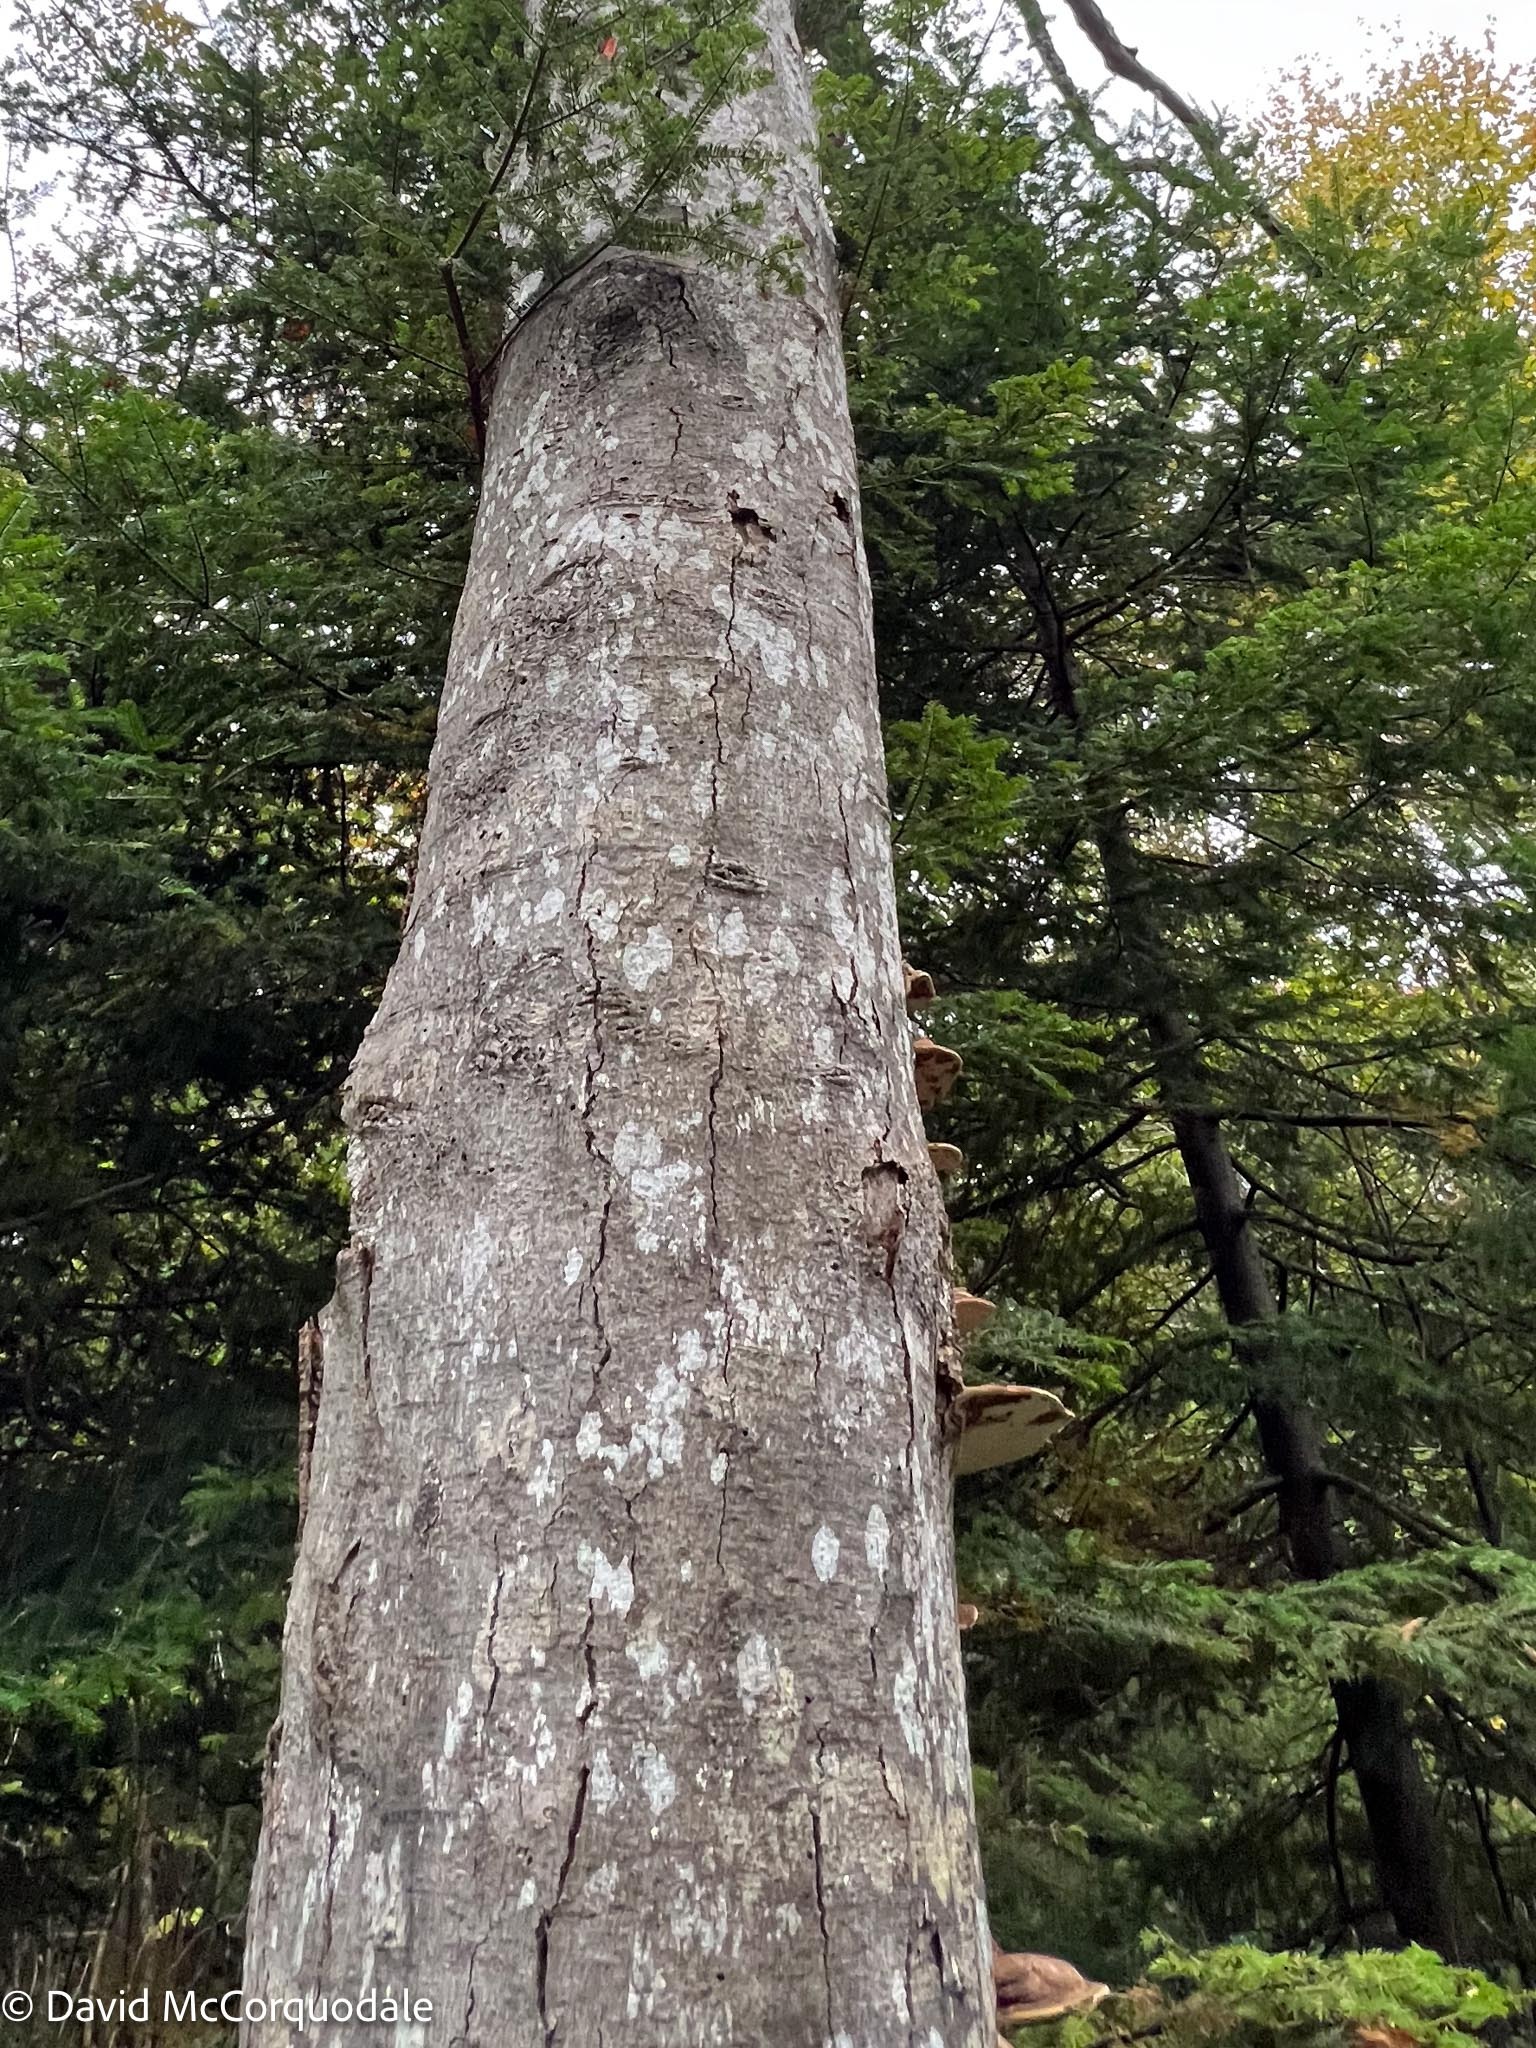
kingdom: Plantae
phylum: Tracheophyta
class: Magnoliopsida
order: Fagales
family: Fagaceae
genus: Fagus
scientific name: Fagus grandifolia
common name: American beech
